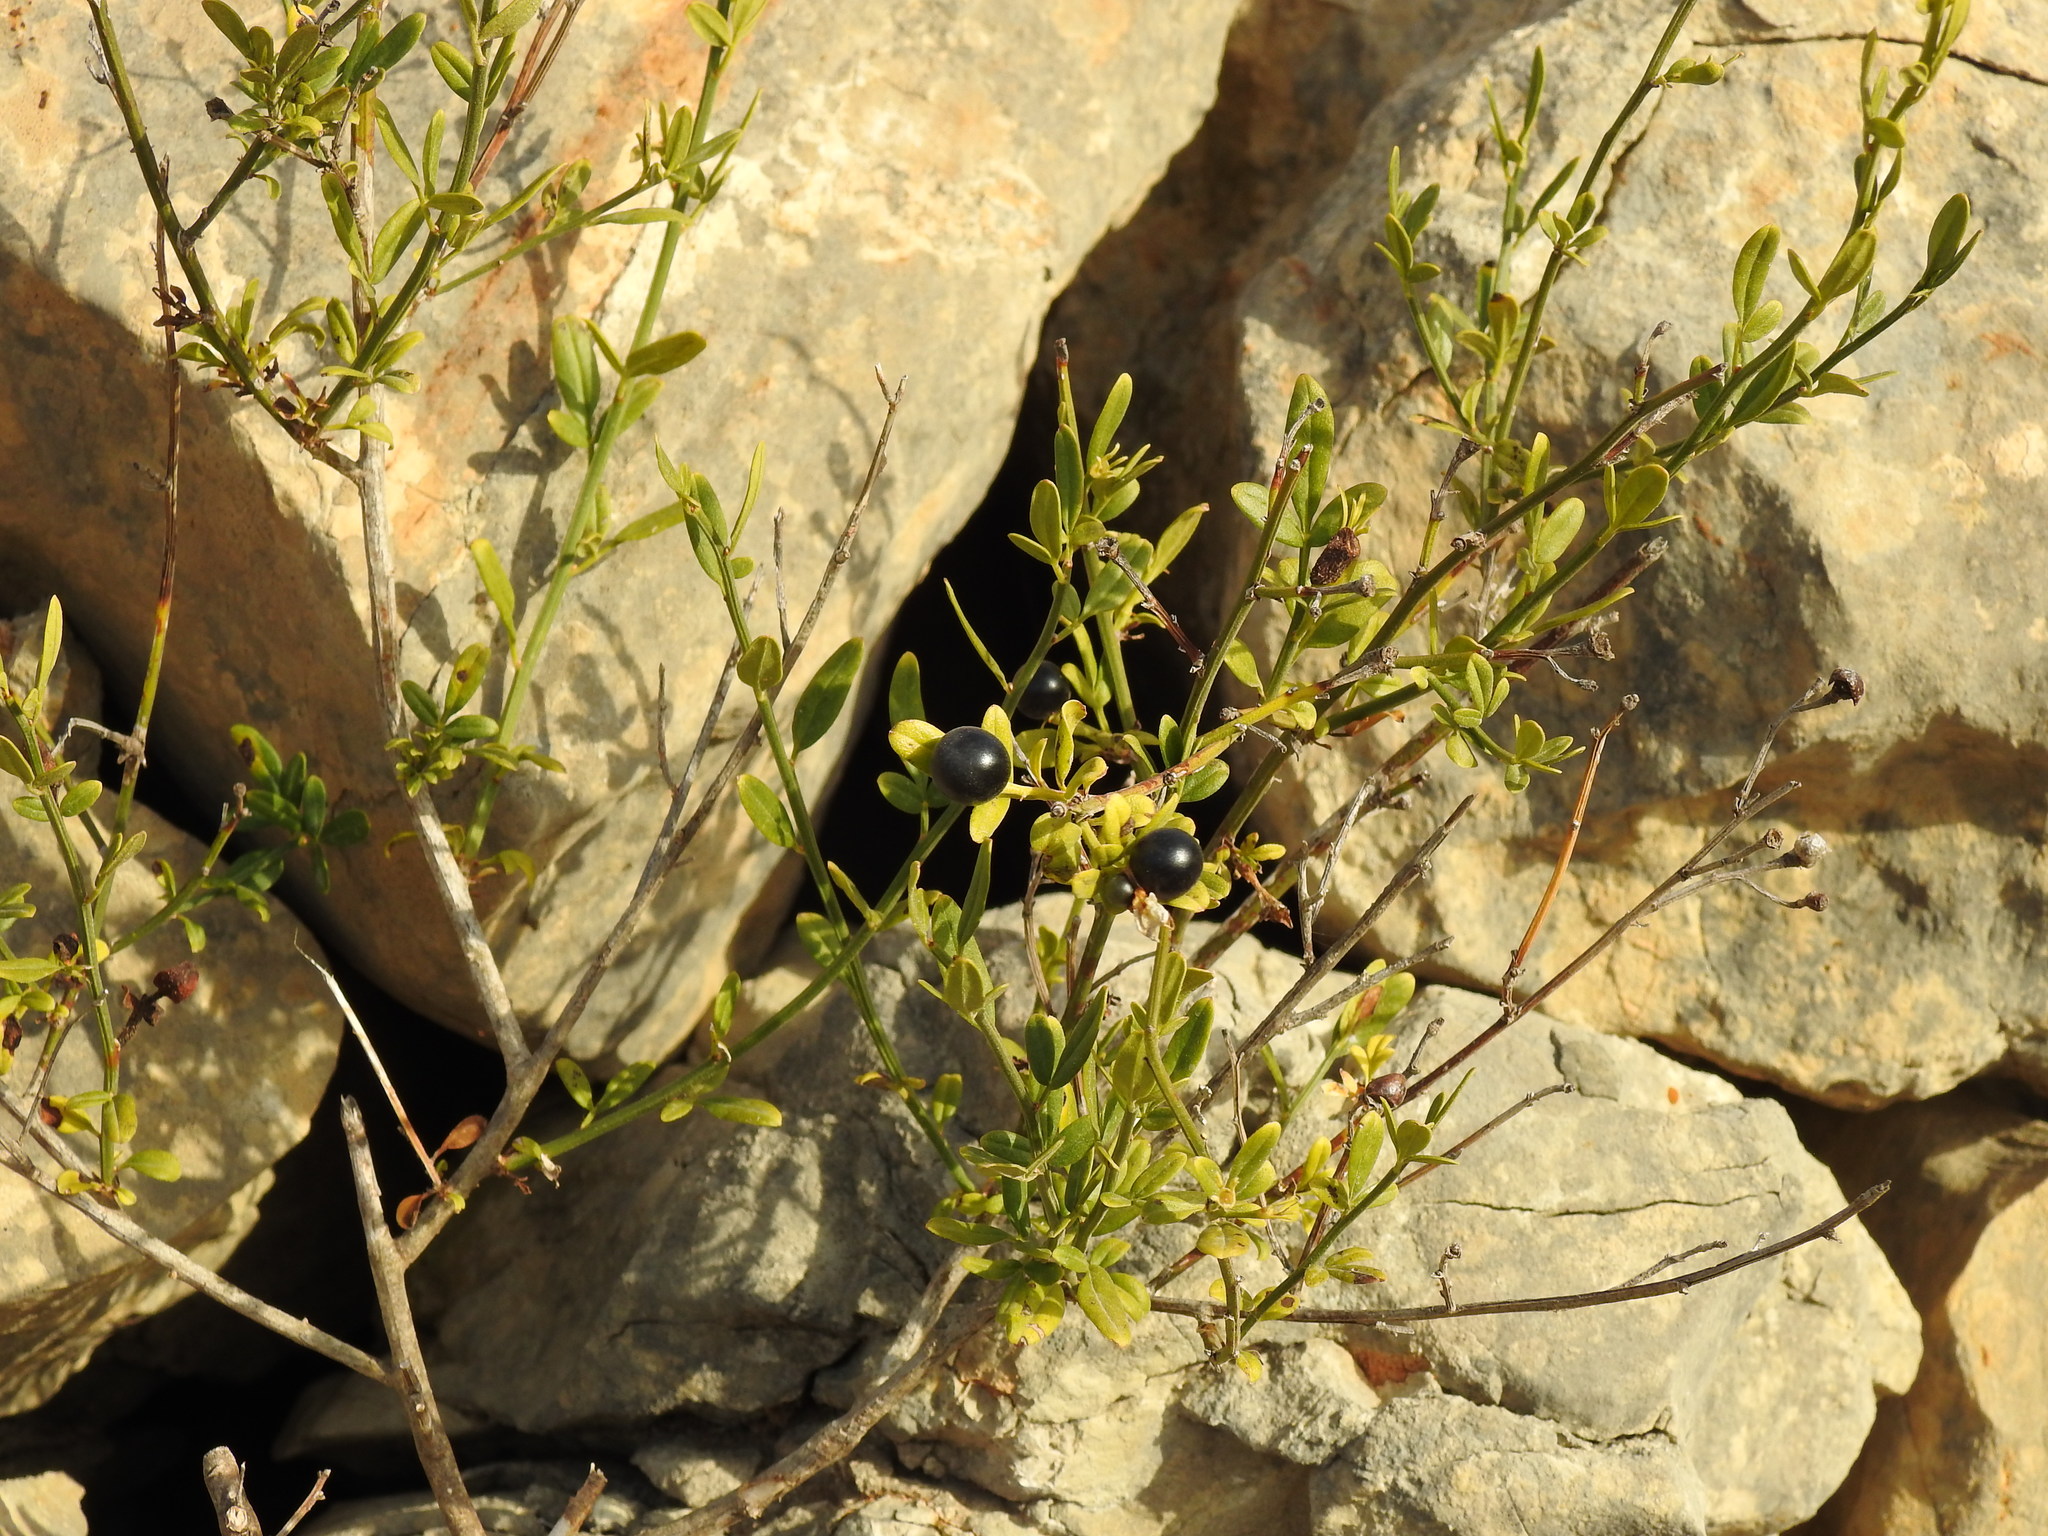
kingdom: Plantae
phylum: Tracheophyta
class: Magnoliopsida
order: Lamiales
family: Oleaceae
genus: Chrysojasminum
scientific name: Chrysojasminum fruticans
